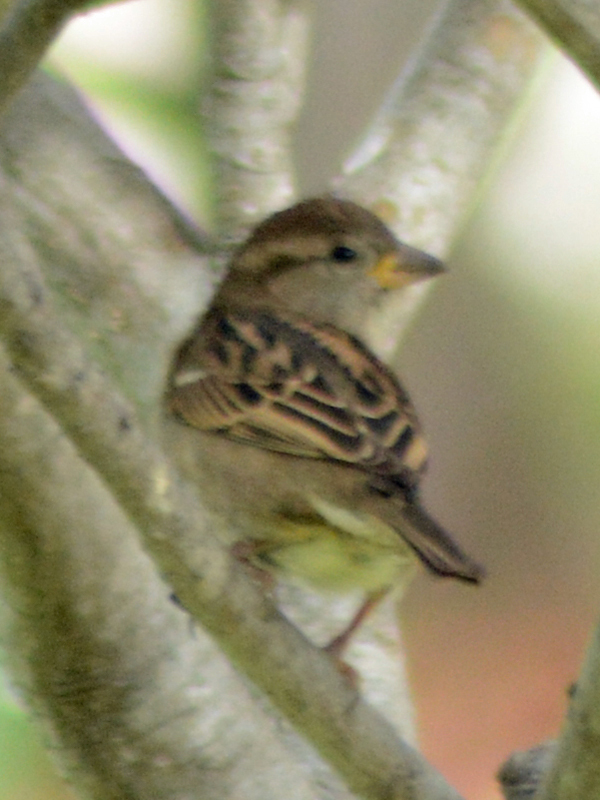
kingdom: Animalia
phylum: Chordata
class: Aves
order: Passeriformes
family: Passeridae
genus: Passer
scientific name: Passer domesticus
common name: House sparrow
